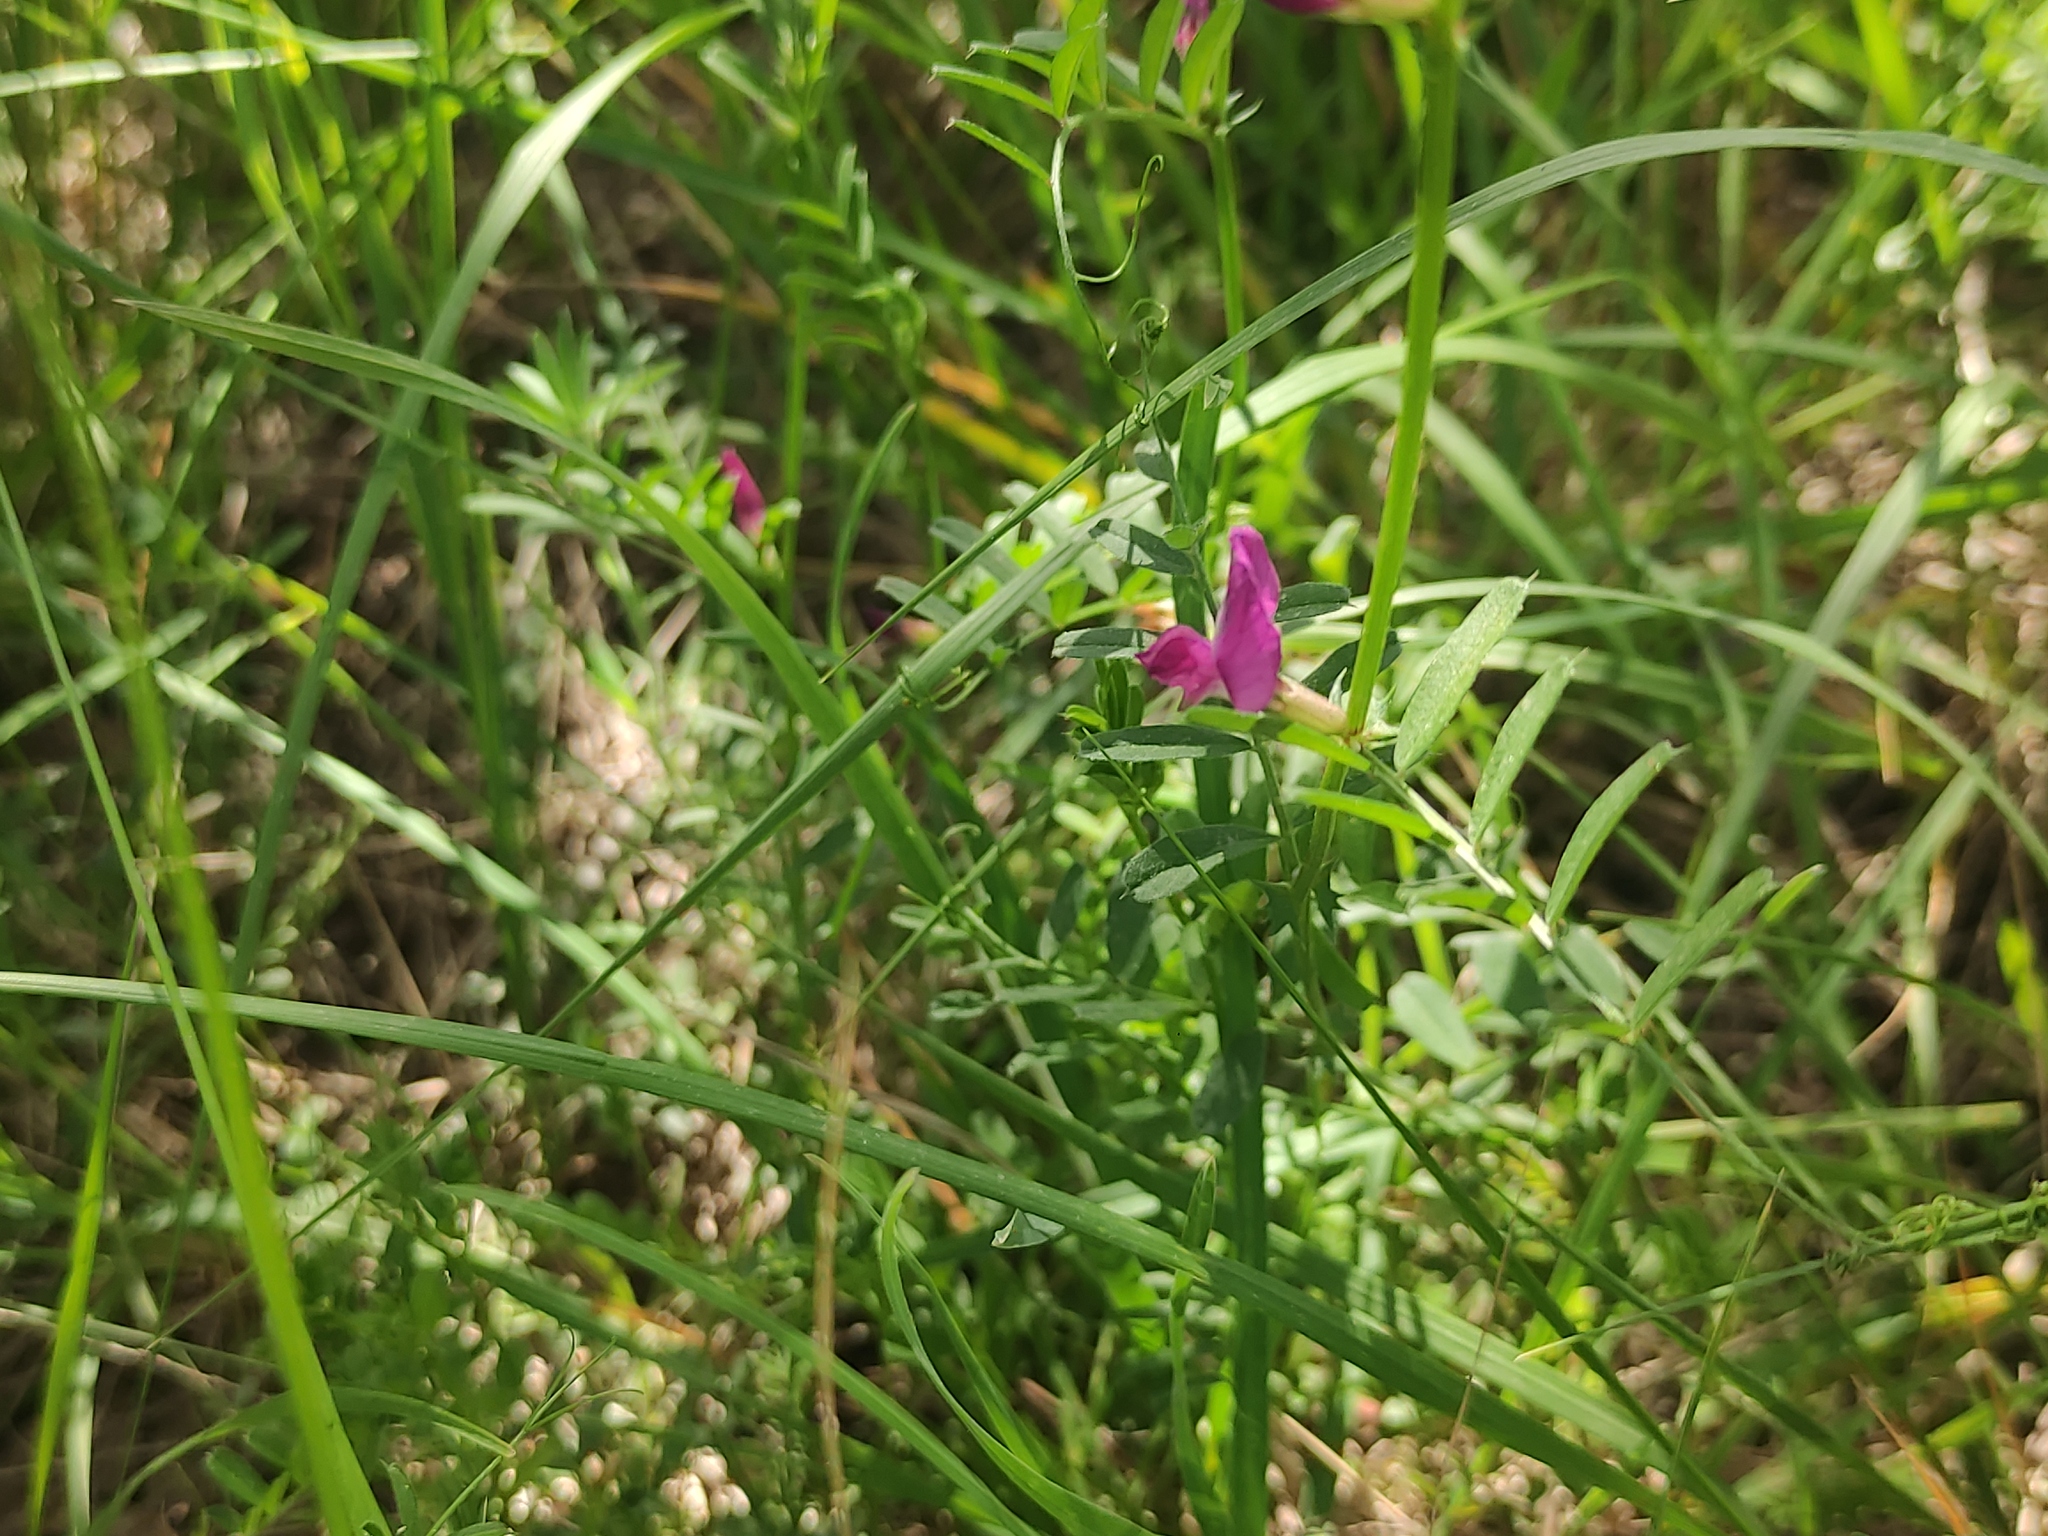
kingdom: Plantae
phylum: Tracheophyta
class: Magnoliopsida
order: Fabales
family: Fabaceae
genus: Vicia
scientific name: Vicia sativa
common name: Garden vetch
